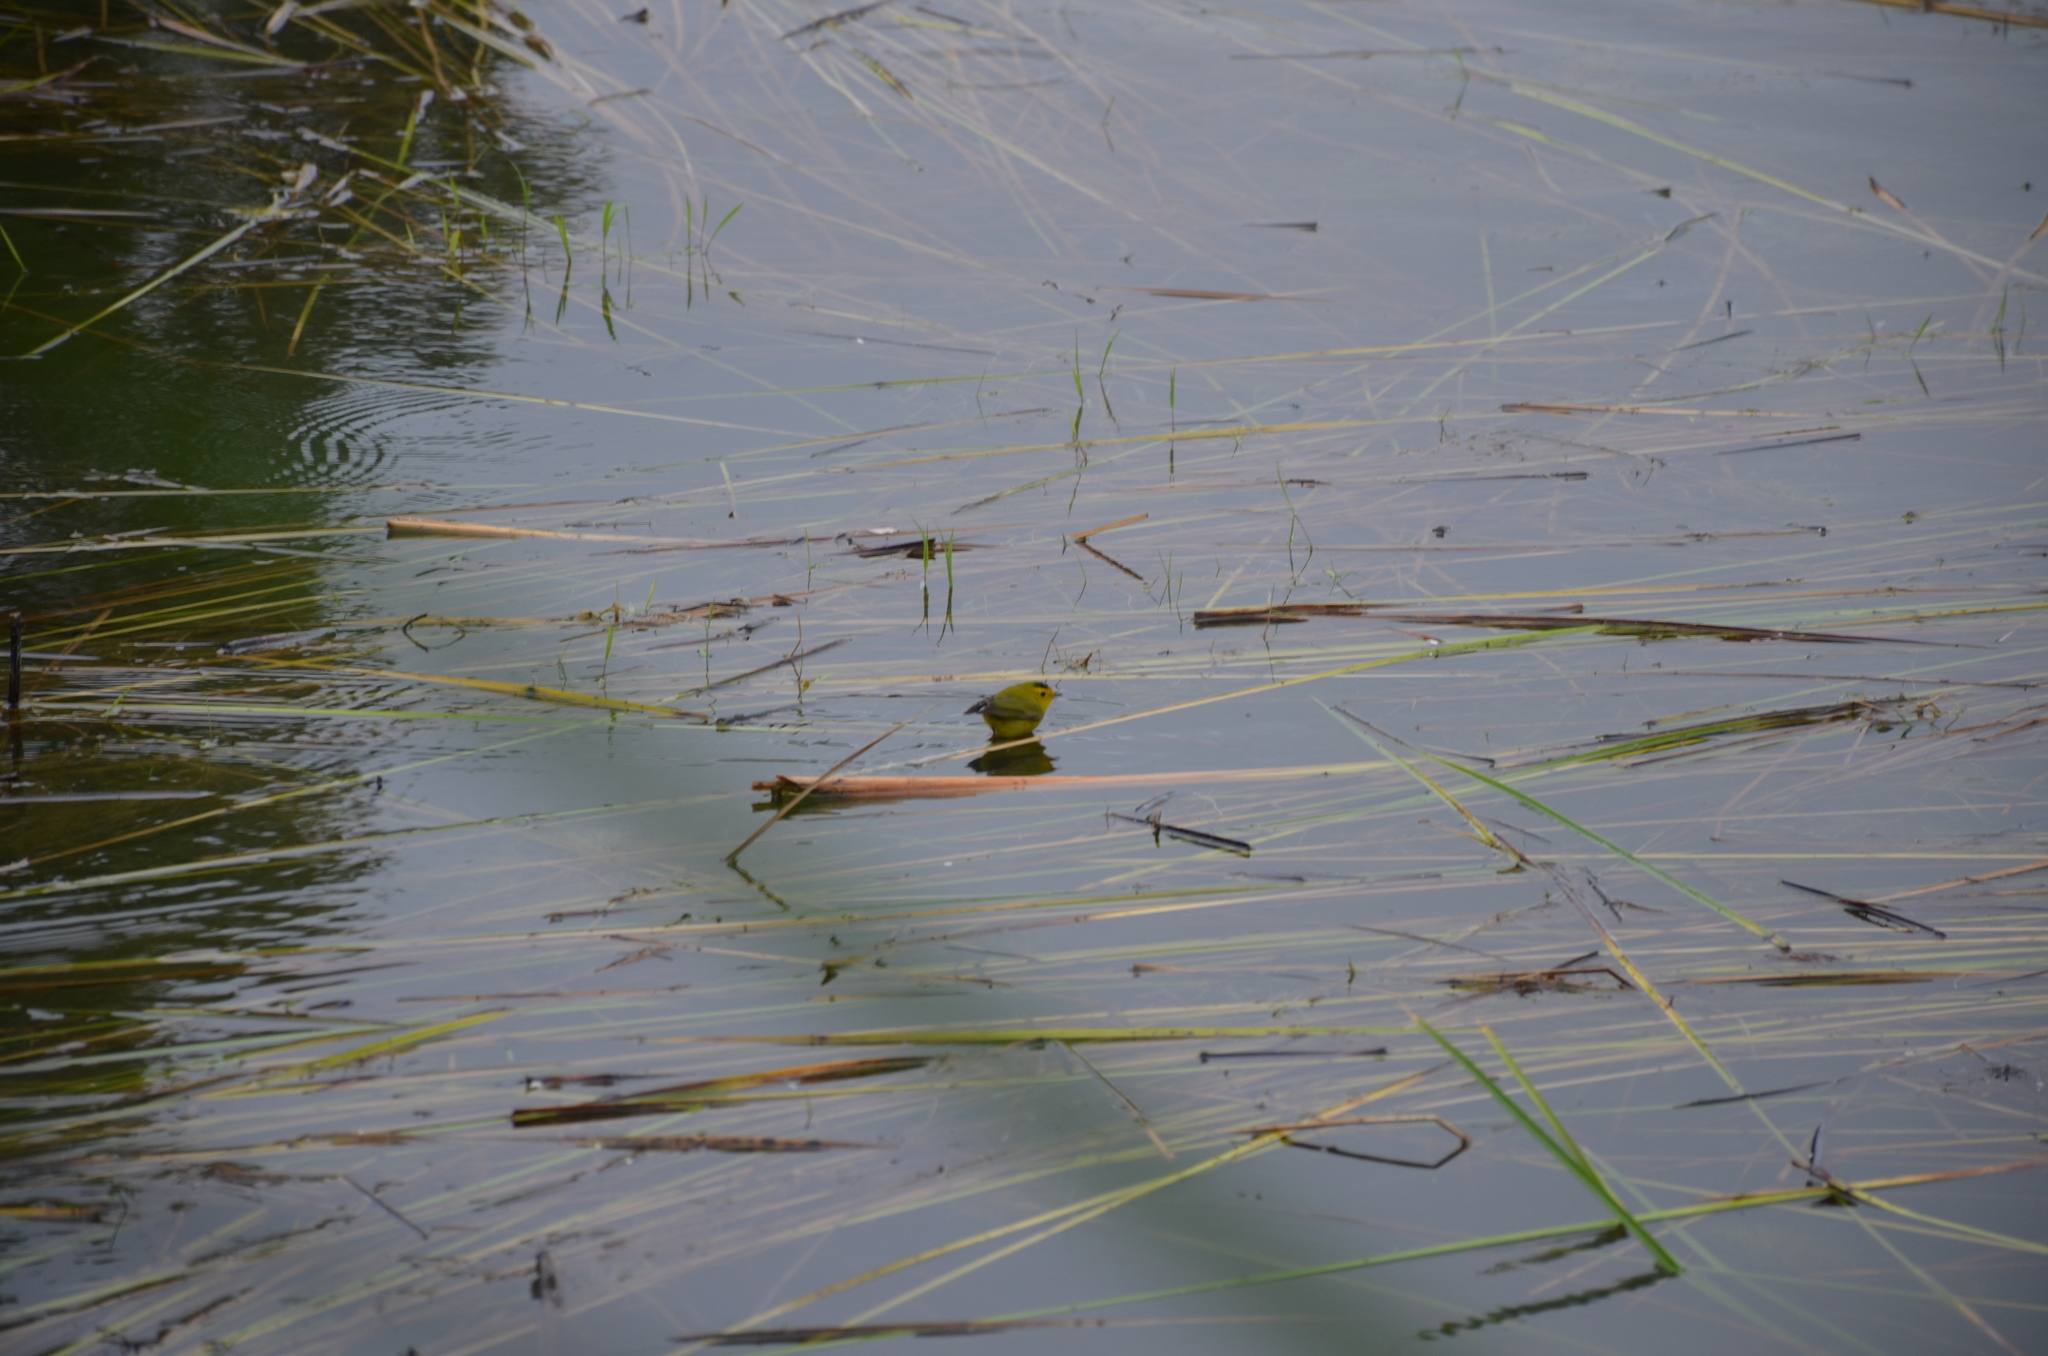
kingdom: Animalia
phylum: Chordata
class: Aves
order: Passeriformes
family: Parulidae
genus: Cardellina
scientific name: Cardellina pusilla
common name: Wilson's warbler
